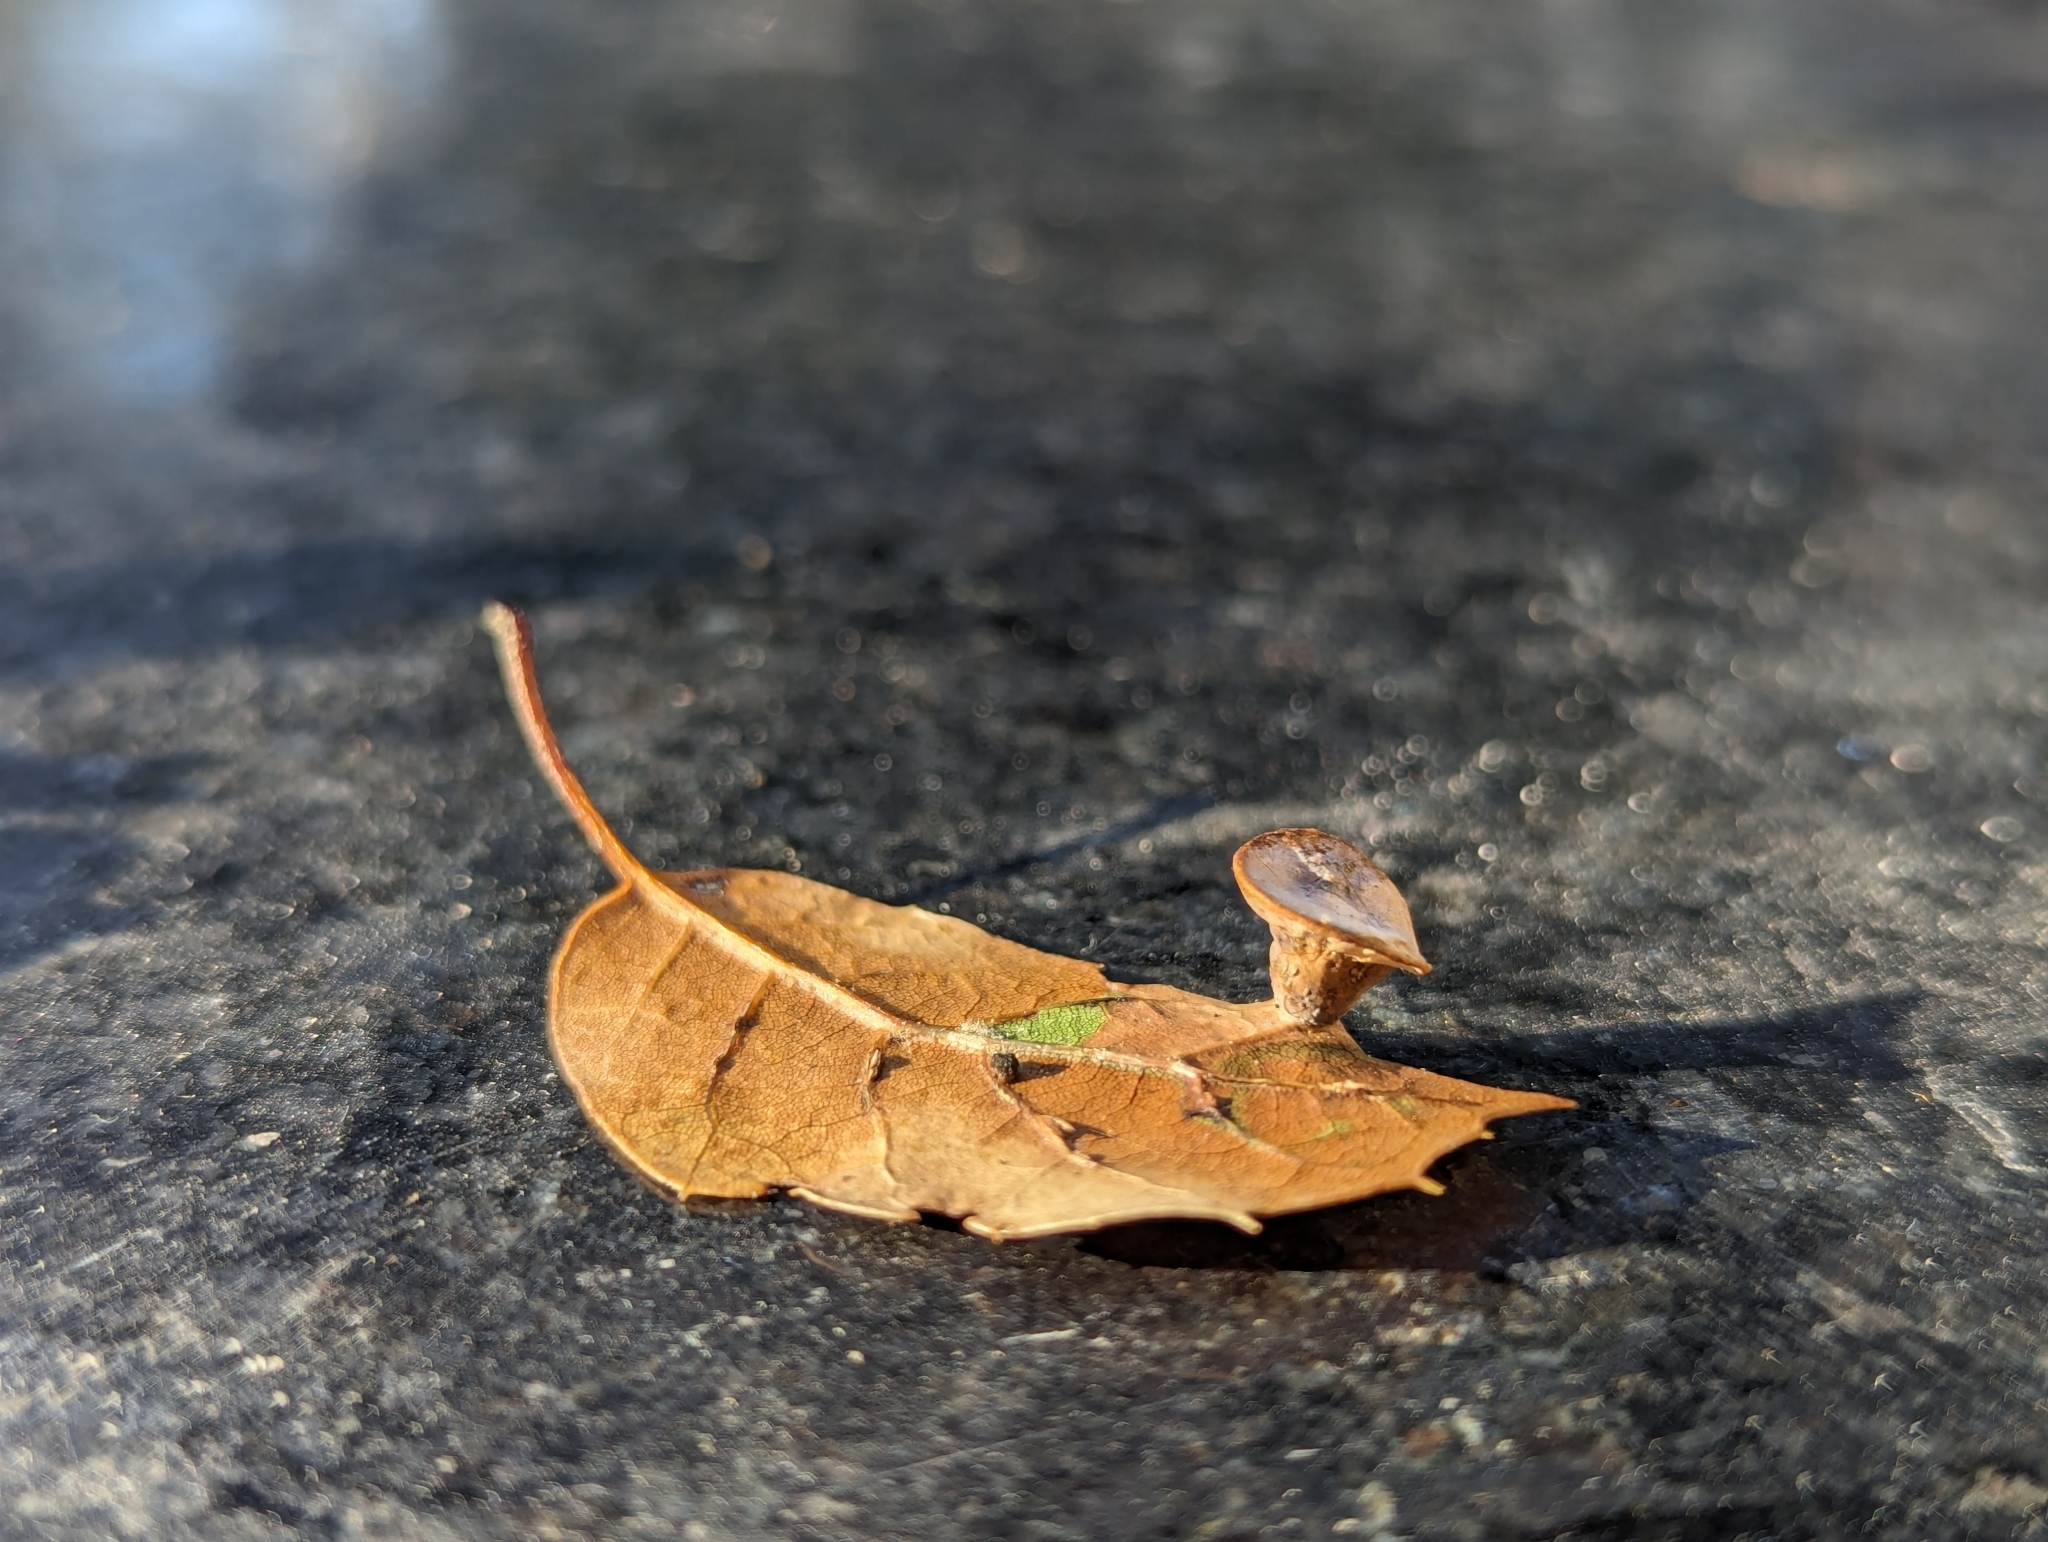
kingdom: Animalia
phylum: Arthropoda
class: Insecta
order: Hymenoptera
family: Cynipidae
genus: Amphibolips
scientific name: Amphibolips quercuspomiformis
